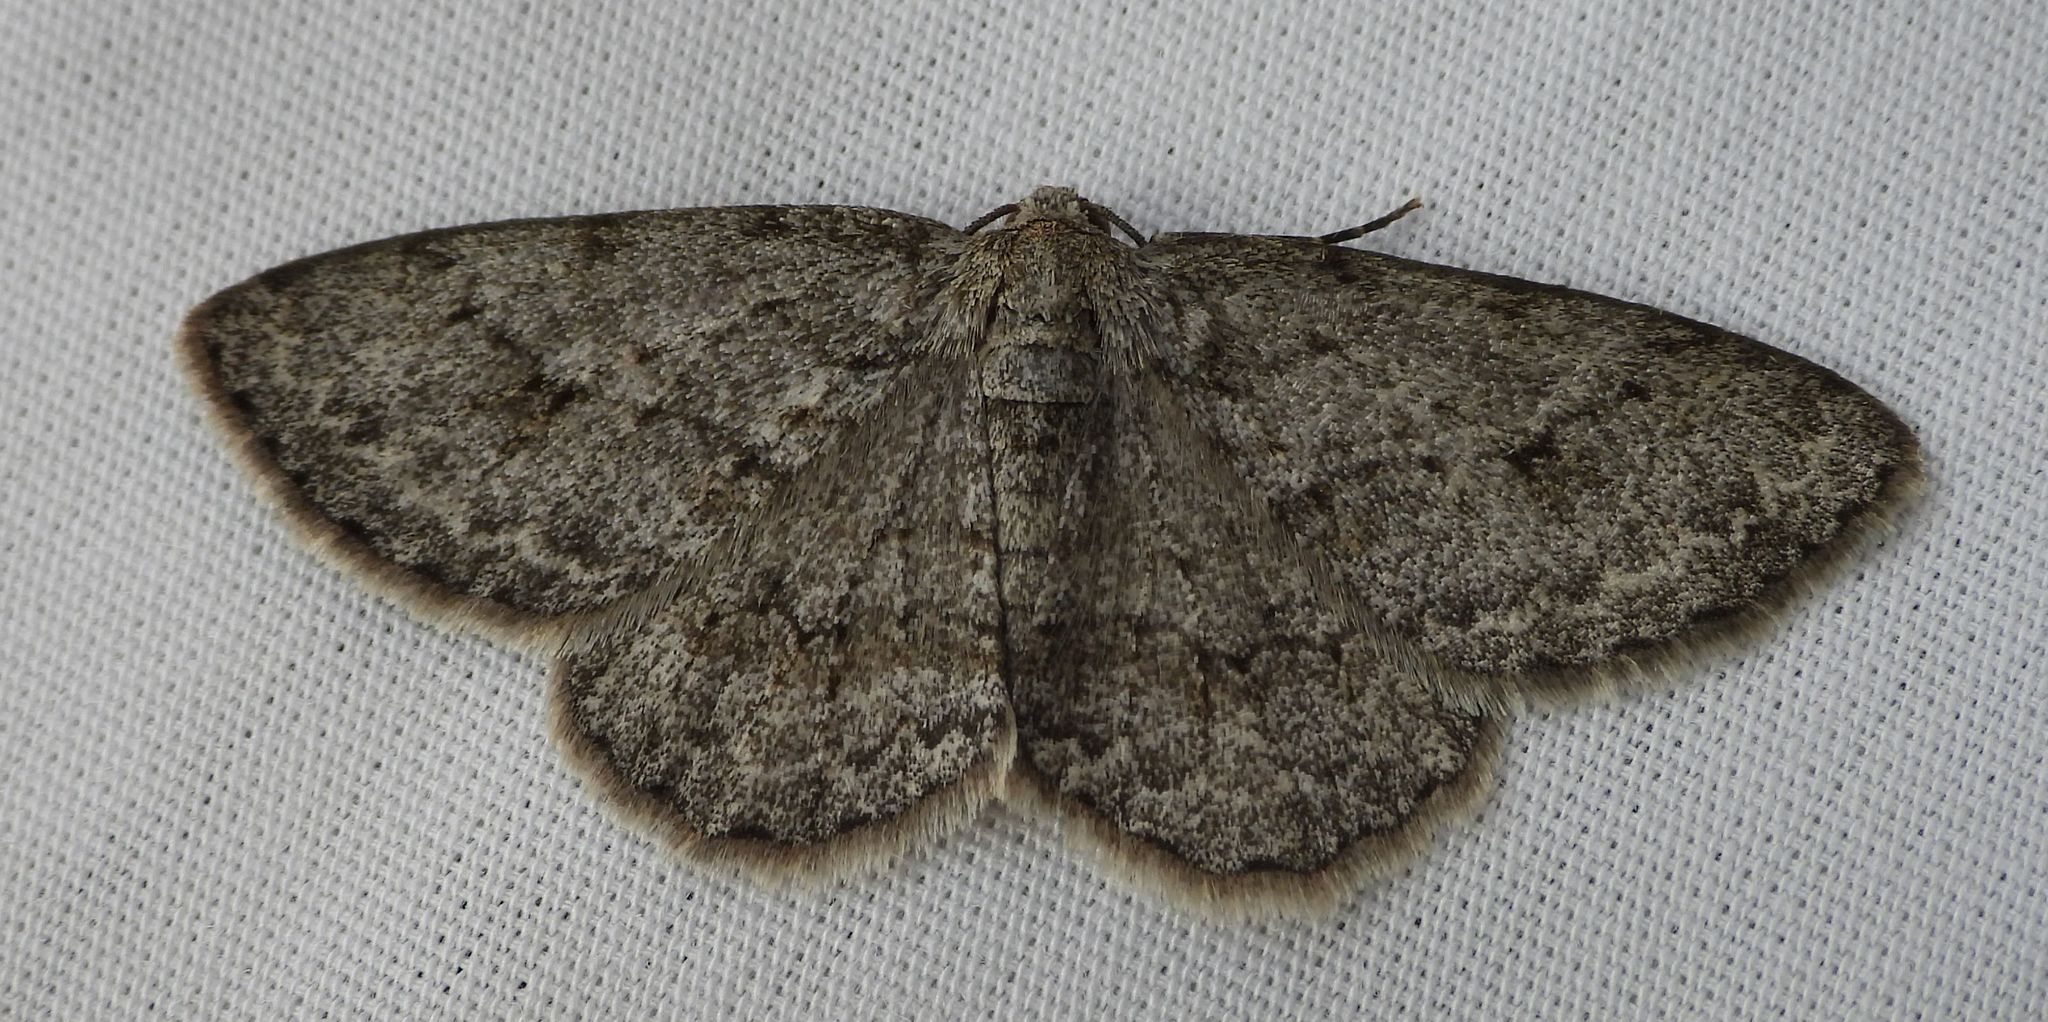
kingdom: Animalia
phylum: Arthropoda
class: Insecta
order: Lepidoptera
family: Geometridae
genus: Ectropis
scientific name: Ectropis crepuscularia
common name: Engrailed
